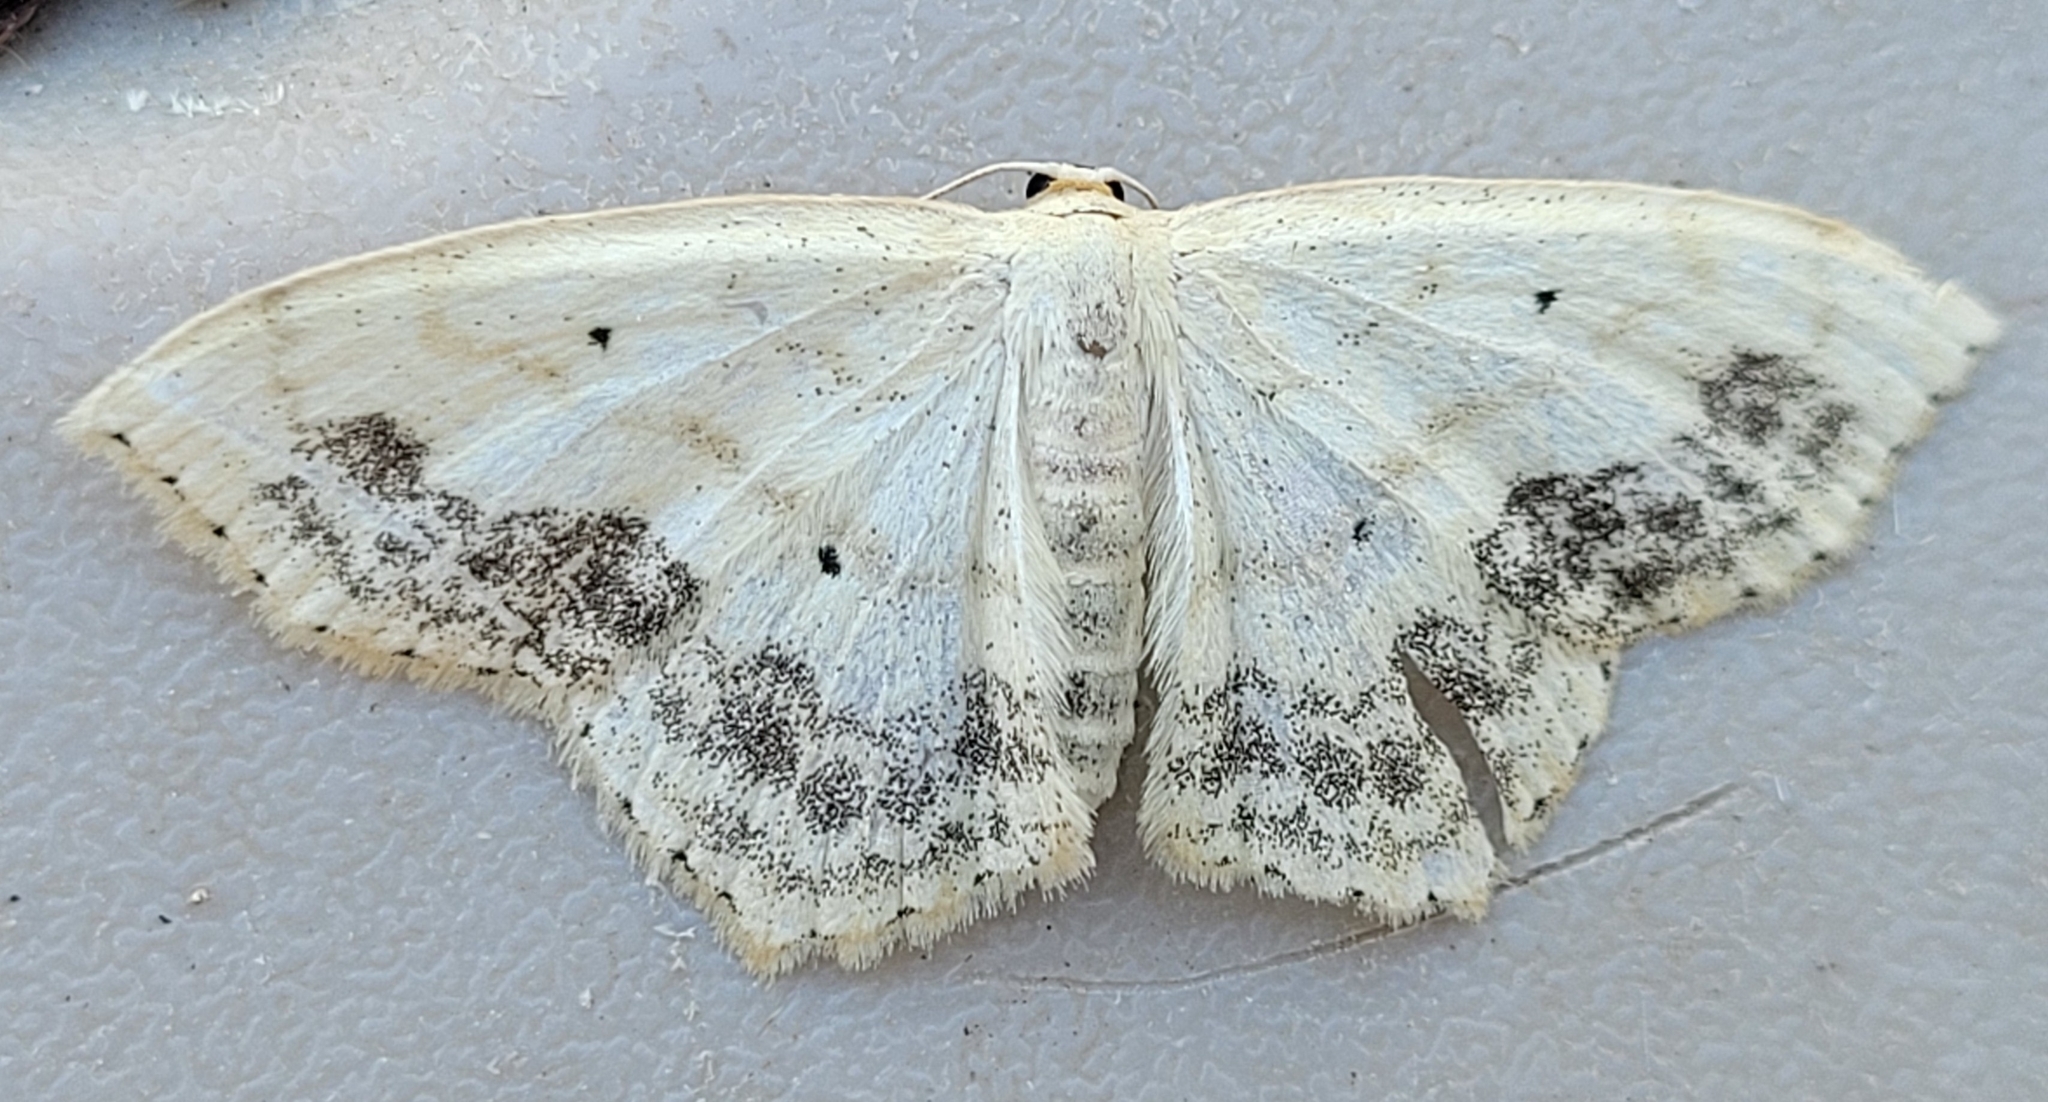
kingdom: Animalia
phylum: Arthropoda
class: Insecta
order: Lepidoptera
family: Geometridae
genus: Scopula
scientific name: Scopula limboundata
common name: Large lace border
